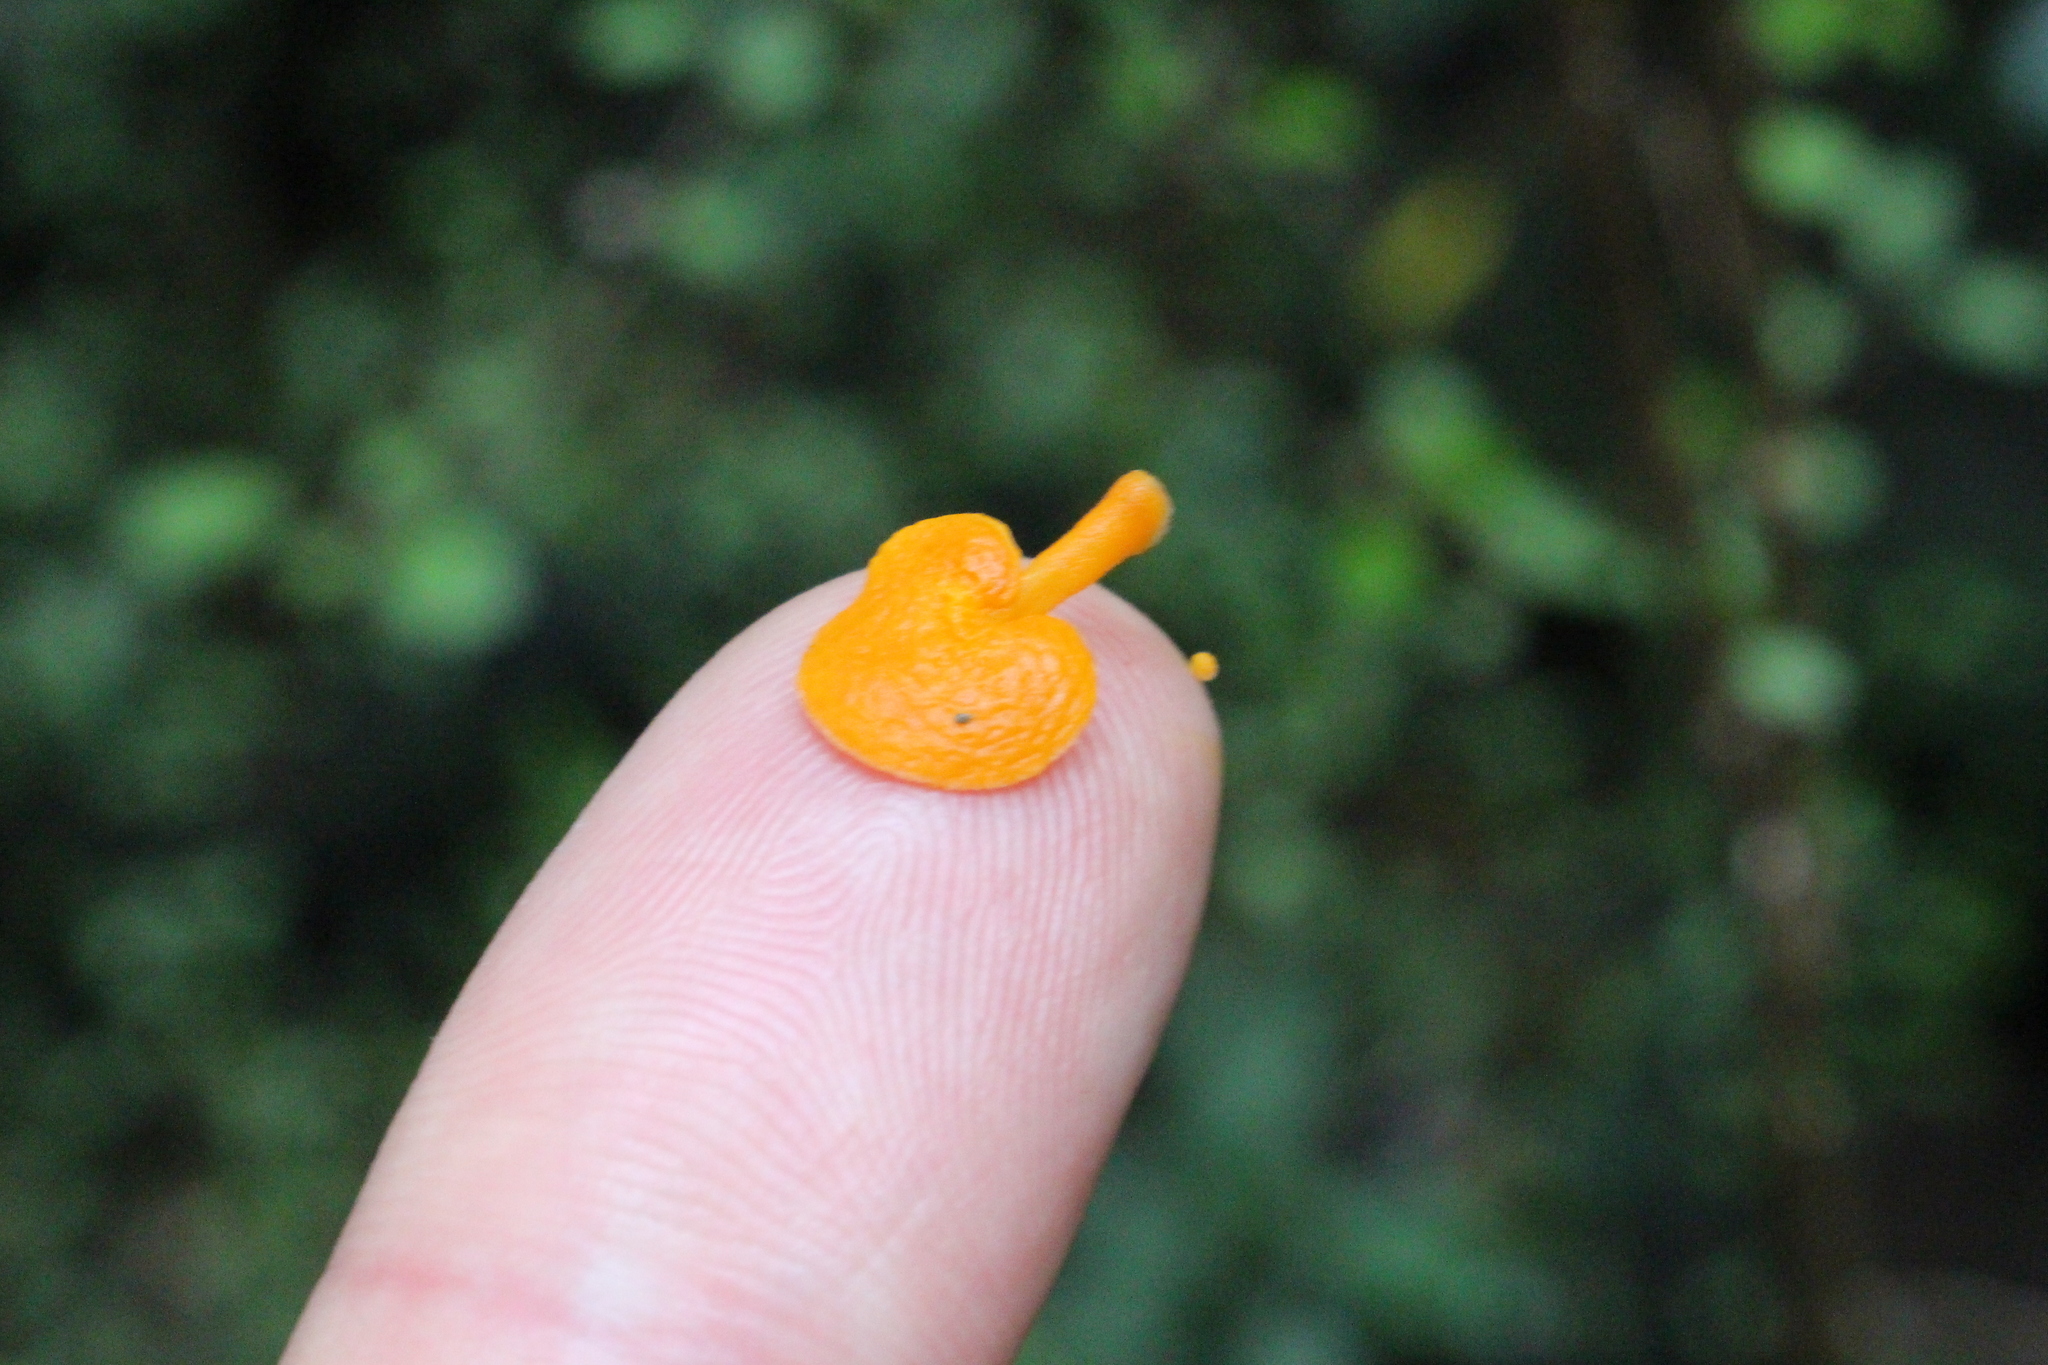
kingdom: Fungi
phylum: Basidiomycota
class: Agaricomycetes
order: Agaricales
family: Mycenaceae
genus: Favolaschia
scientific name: Favolaschia claudopus
